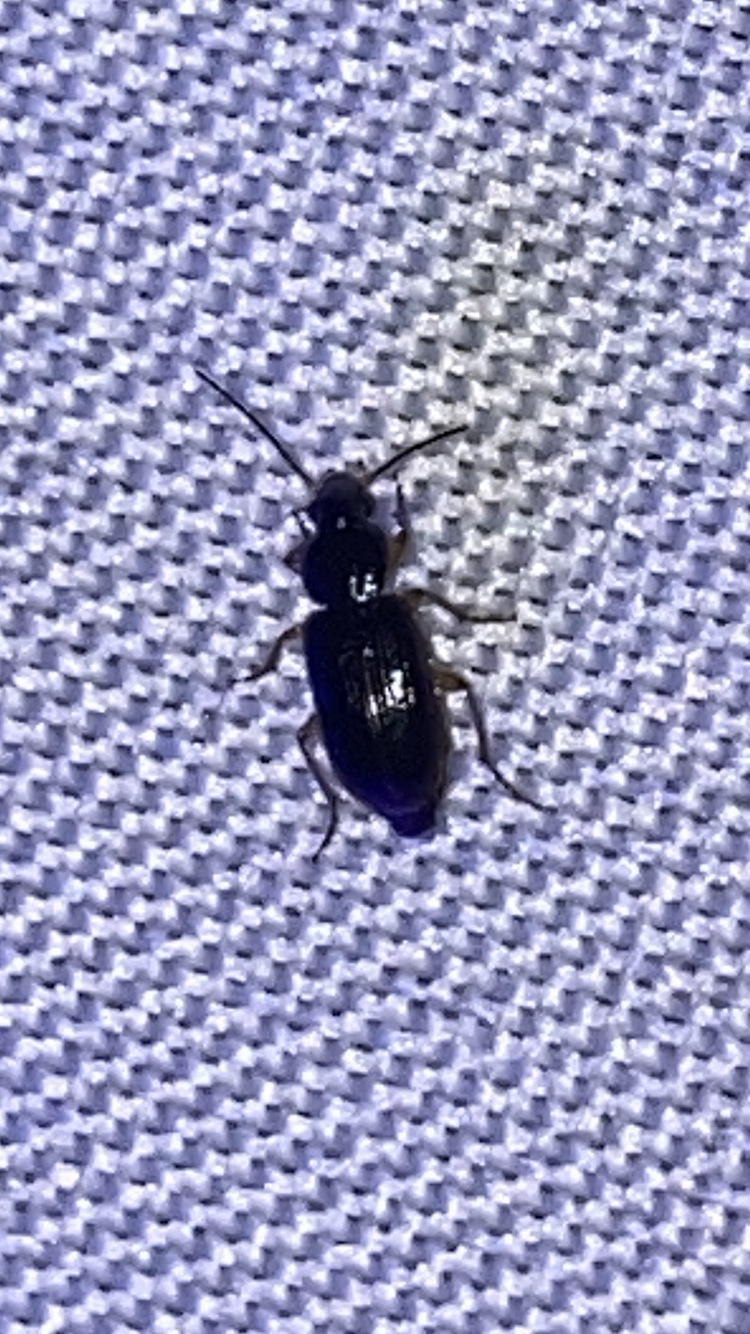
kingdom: Animalia
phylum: Arthropoda
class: Insecta
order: Coleoptera
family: Carabidae
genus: Stenolophus
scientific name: Stenolophus ochropezus
